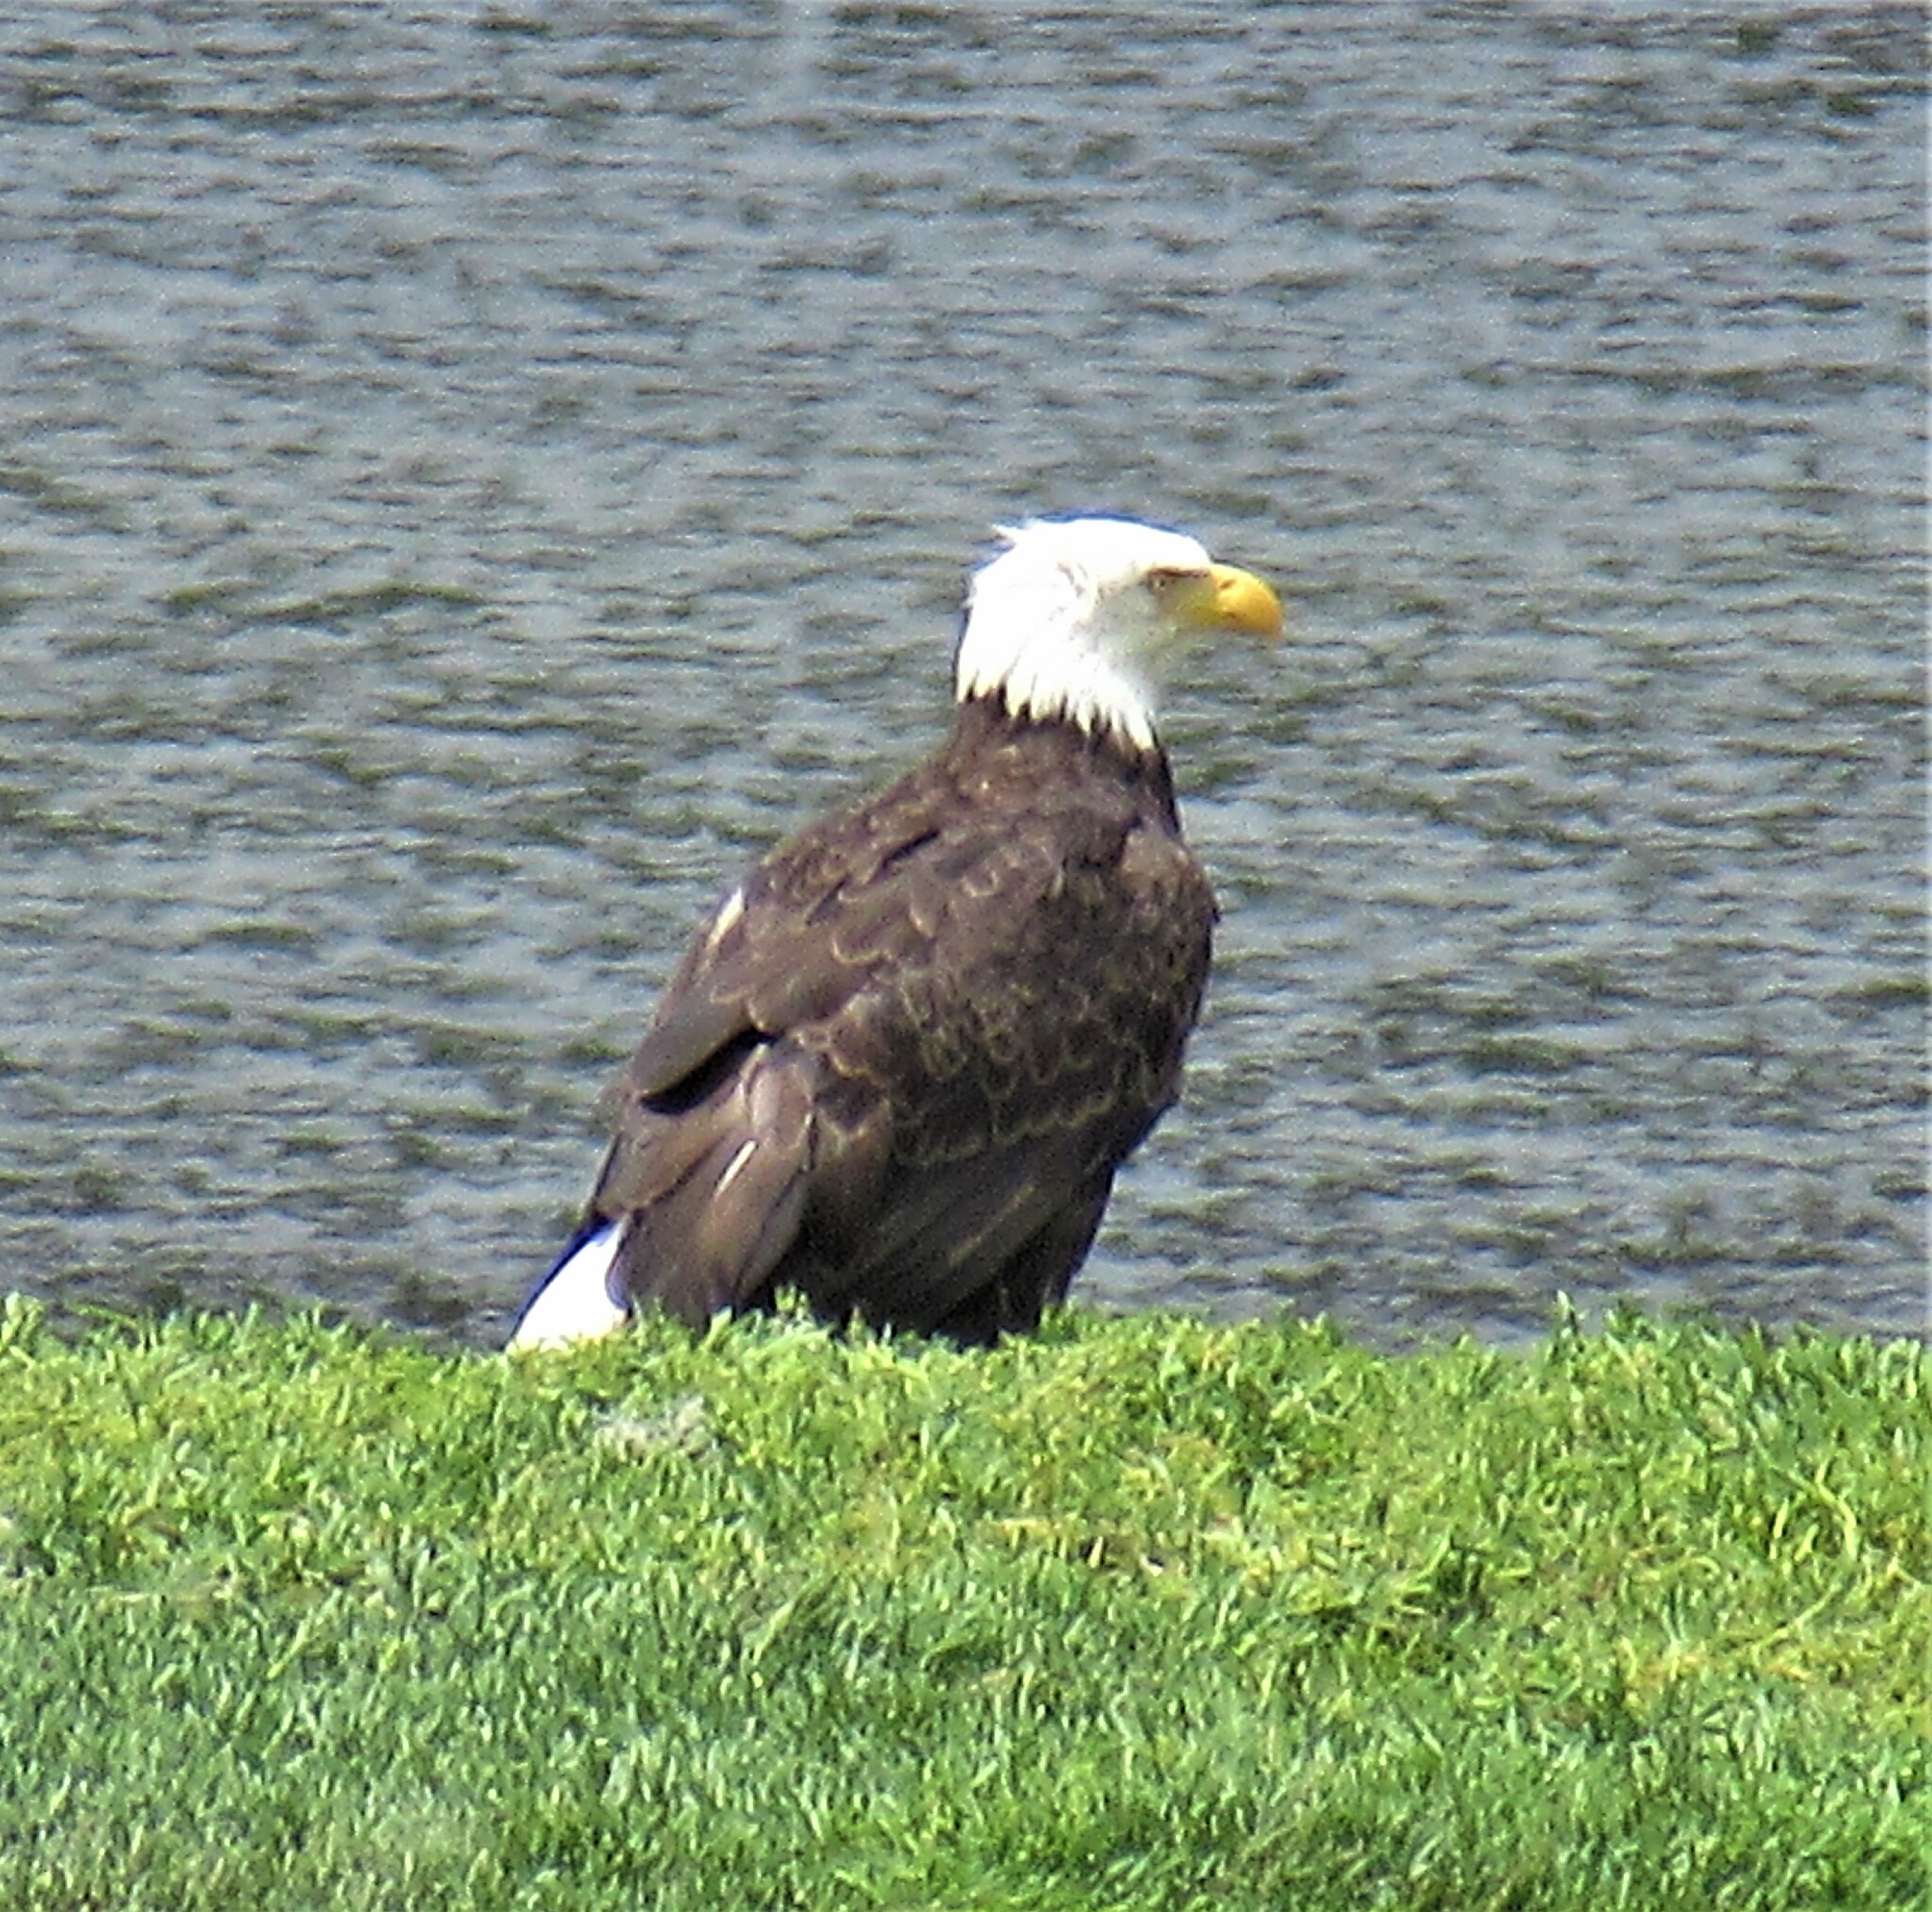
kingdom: Animalia
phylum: Chordata
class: Aves
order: Accipitriformes
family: Accipitridae
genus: Haliaeetus
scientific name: Haliaeetus leucocephalus
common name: Bald eagle
